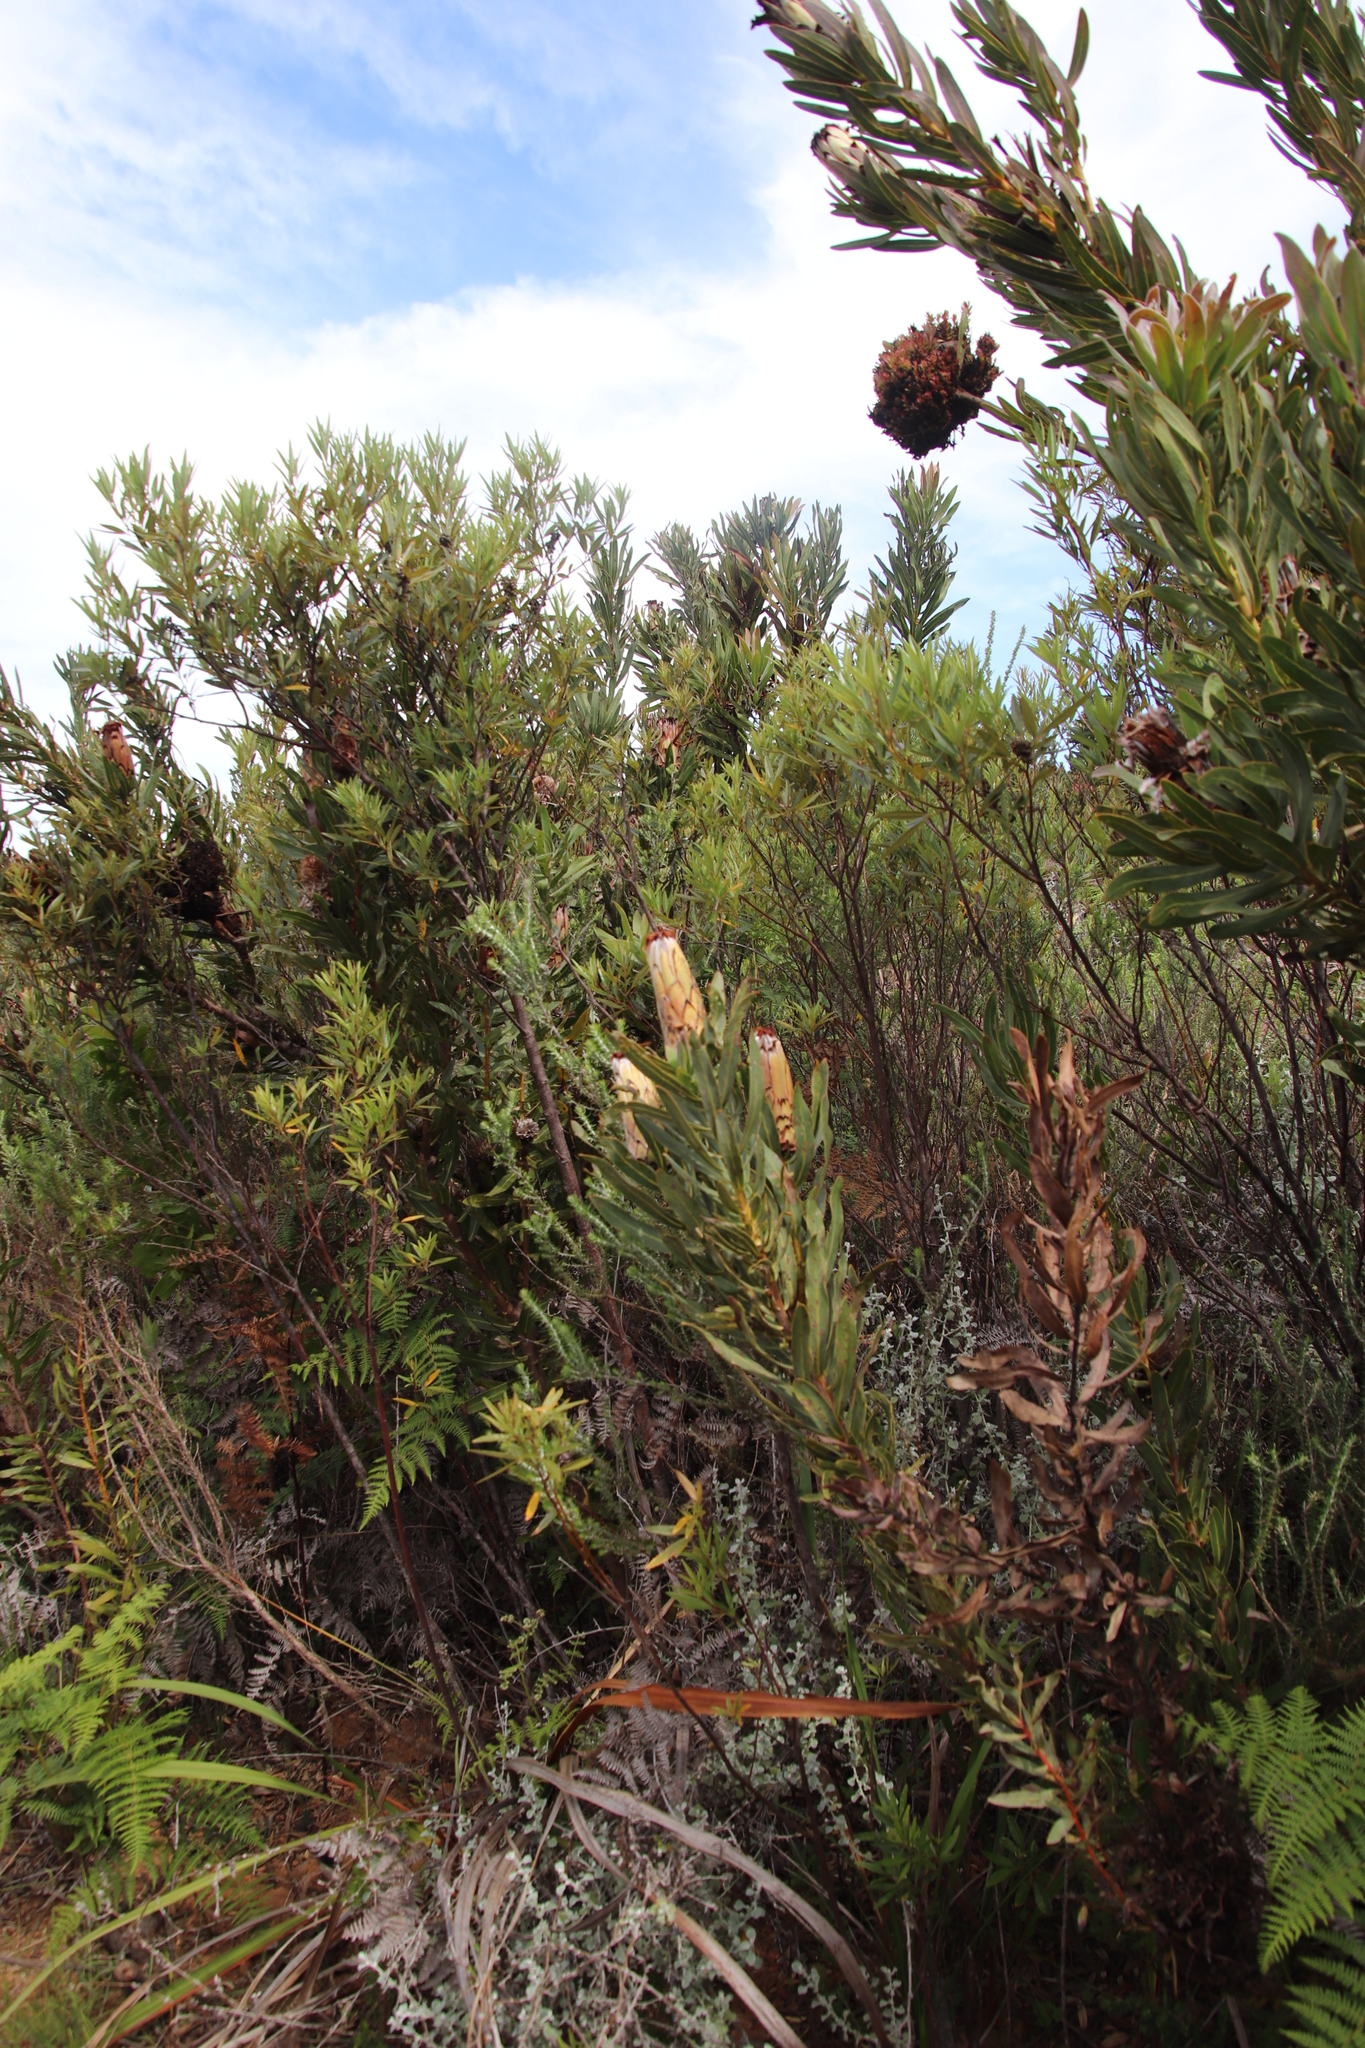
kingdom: Plantae
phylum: Tracheophyta
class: Magnoliopsida
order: Proteales
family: Proteaceae
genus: Protea
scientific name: Protea
